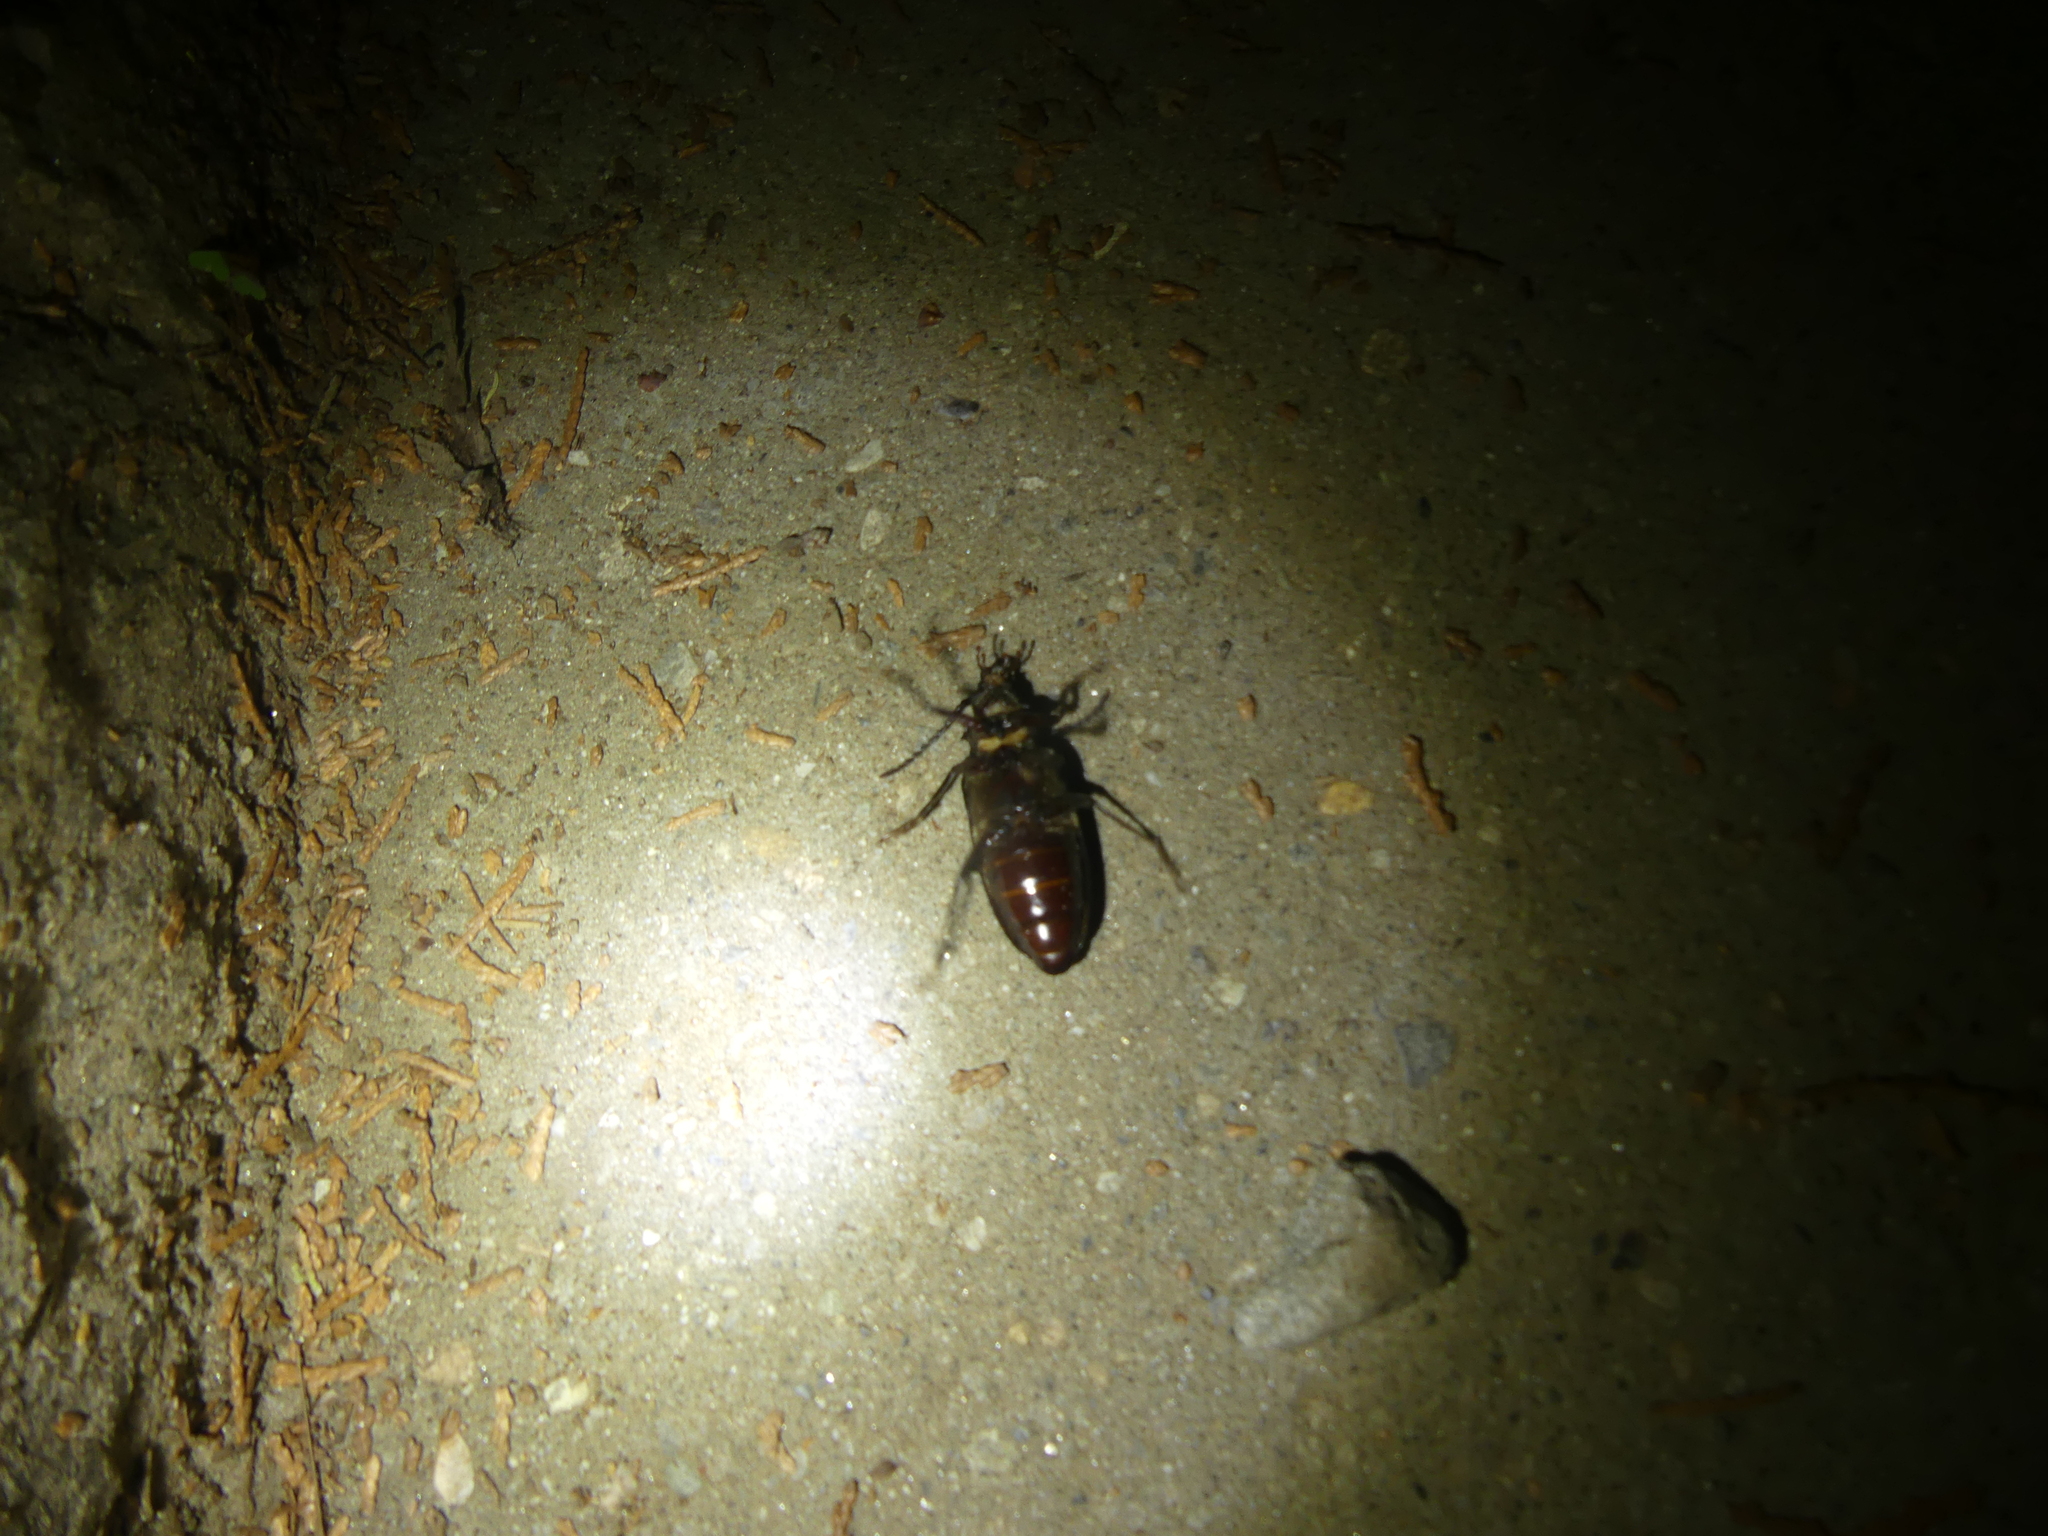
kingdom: Animalia
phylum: Arthropoda
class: Insecta
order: Coleoptera
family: Cerambycidae
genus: Prionus
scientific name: Prionus coriarius
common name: Tanner beetle
